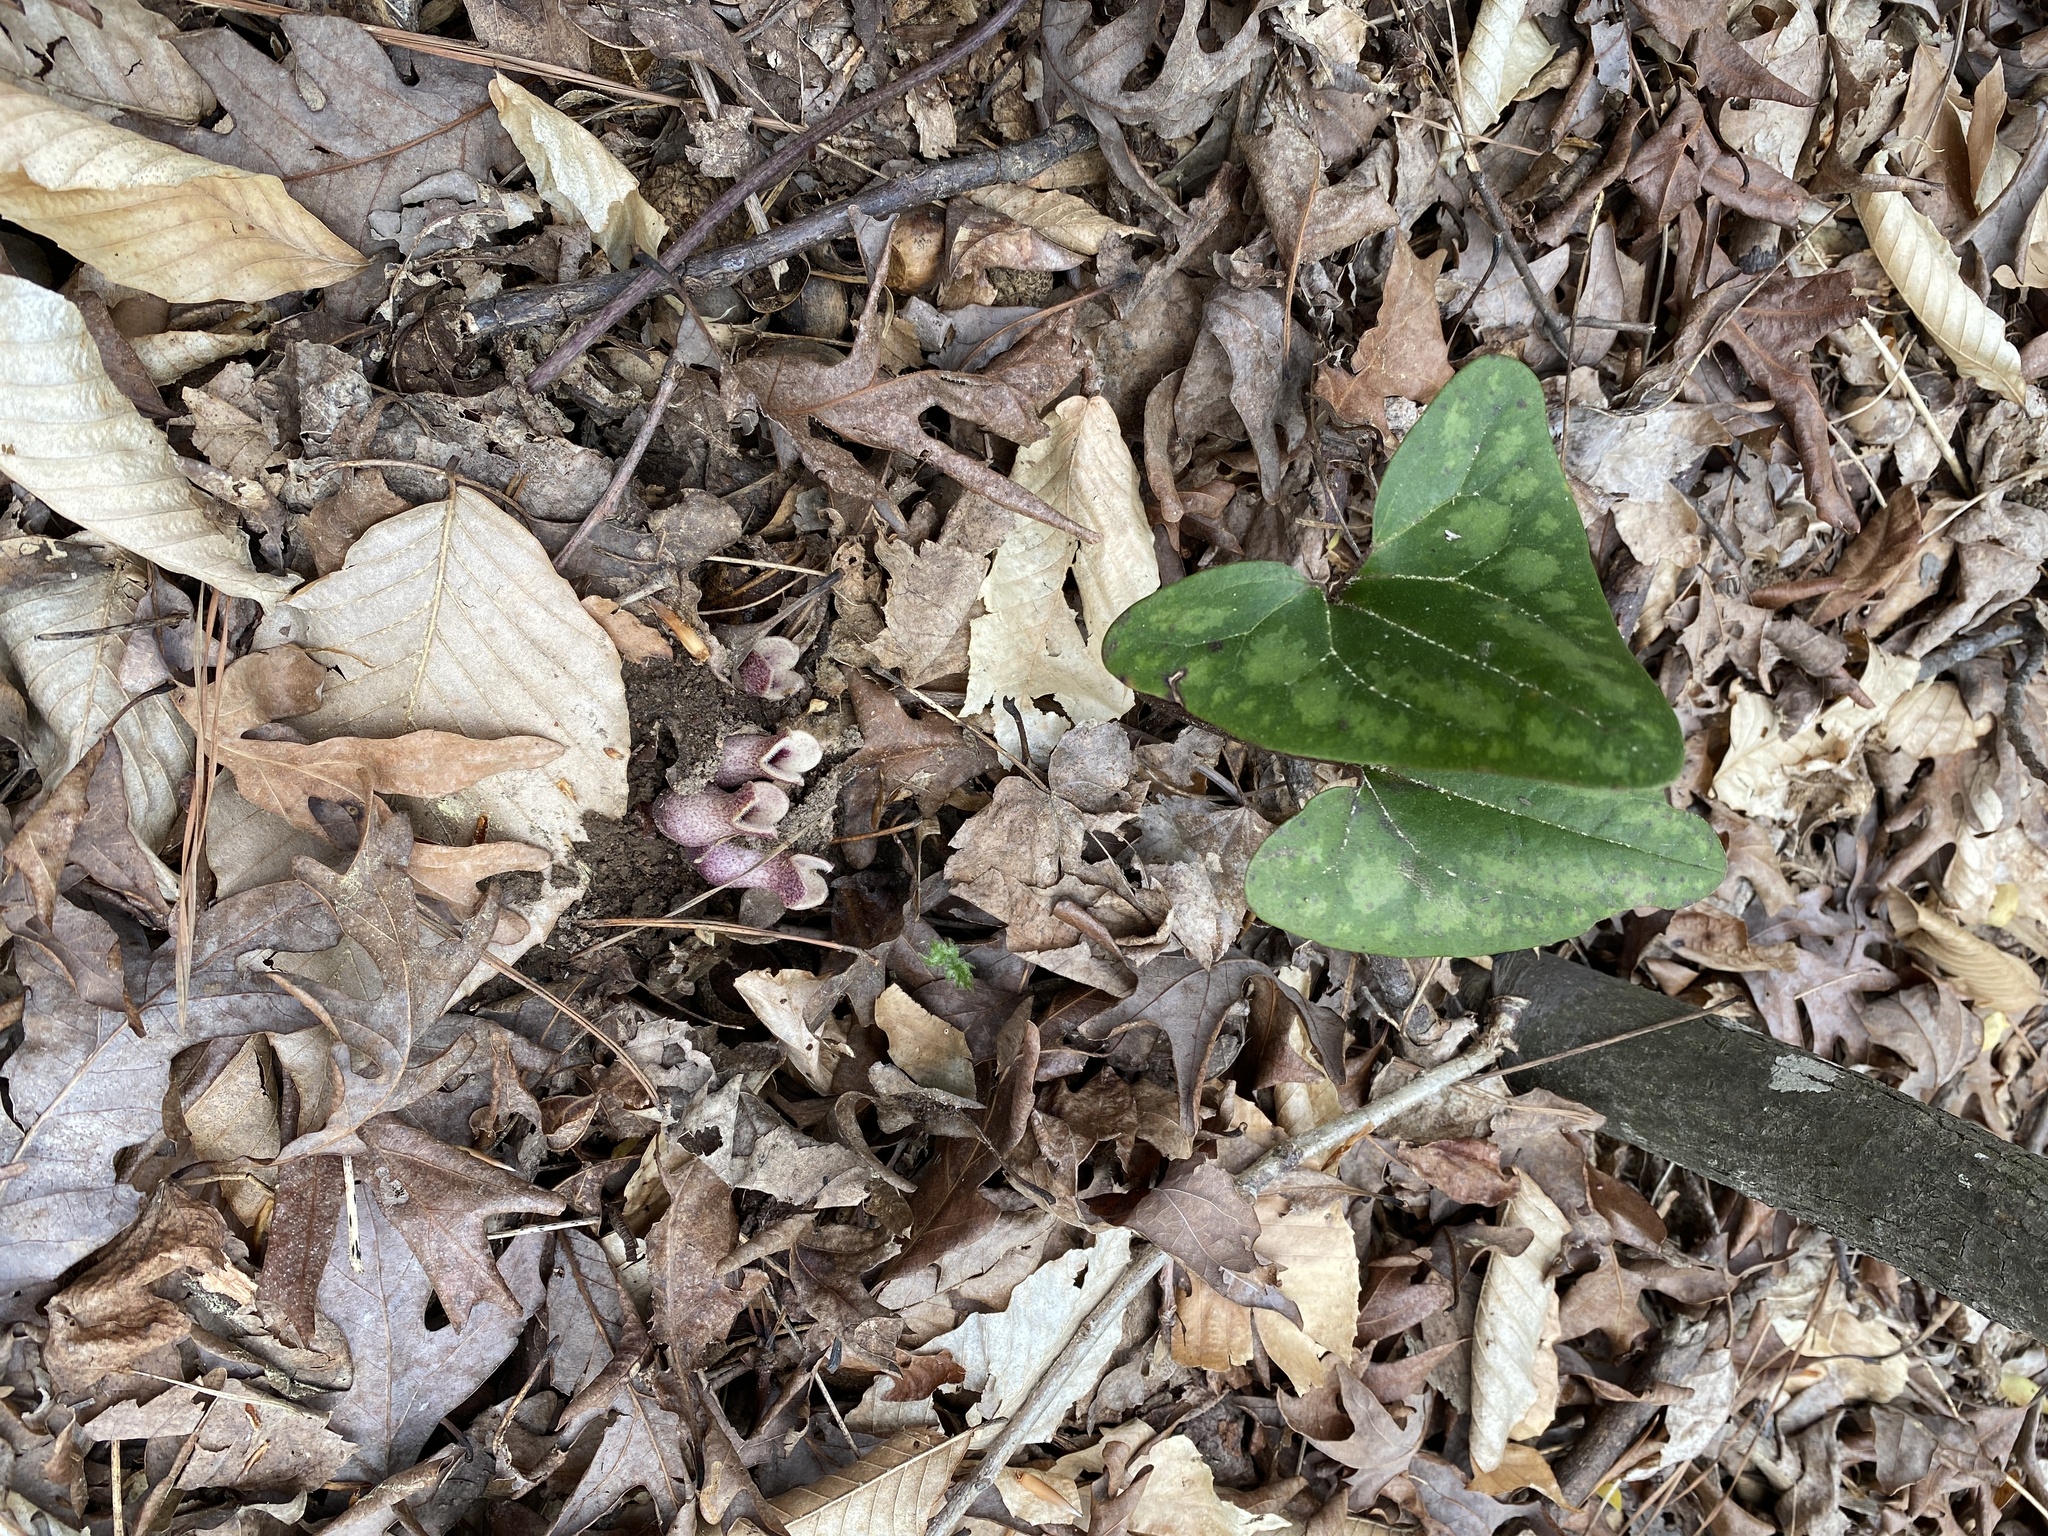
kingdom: Plantae
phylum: Tracheophyta
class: Magnoliopsida
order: Piperales
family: Aristolochiaceae
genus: Hexastylis
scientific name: Hexastylis arifolia
